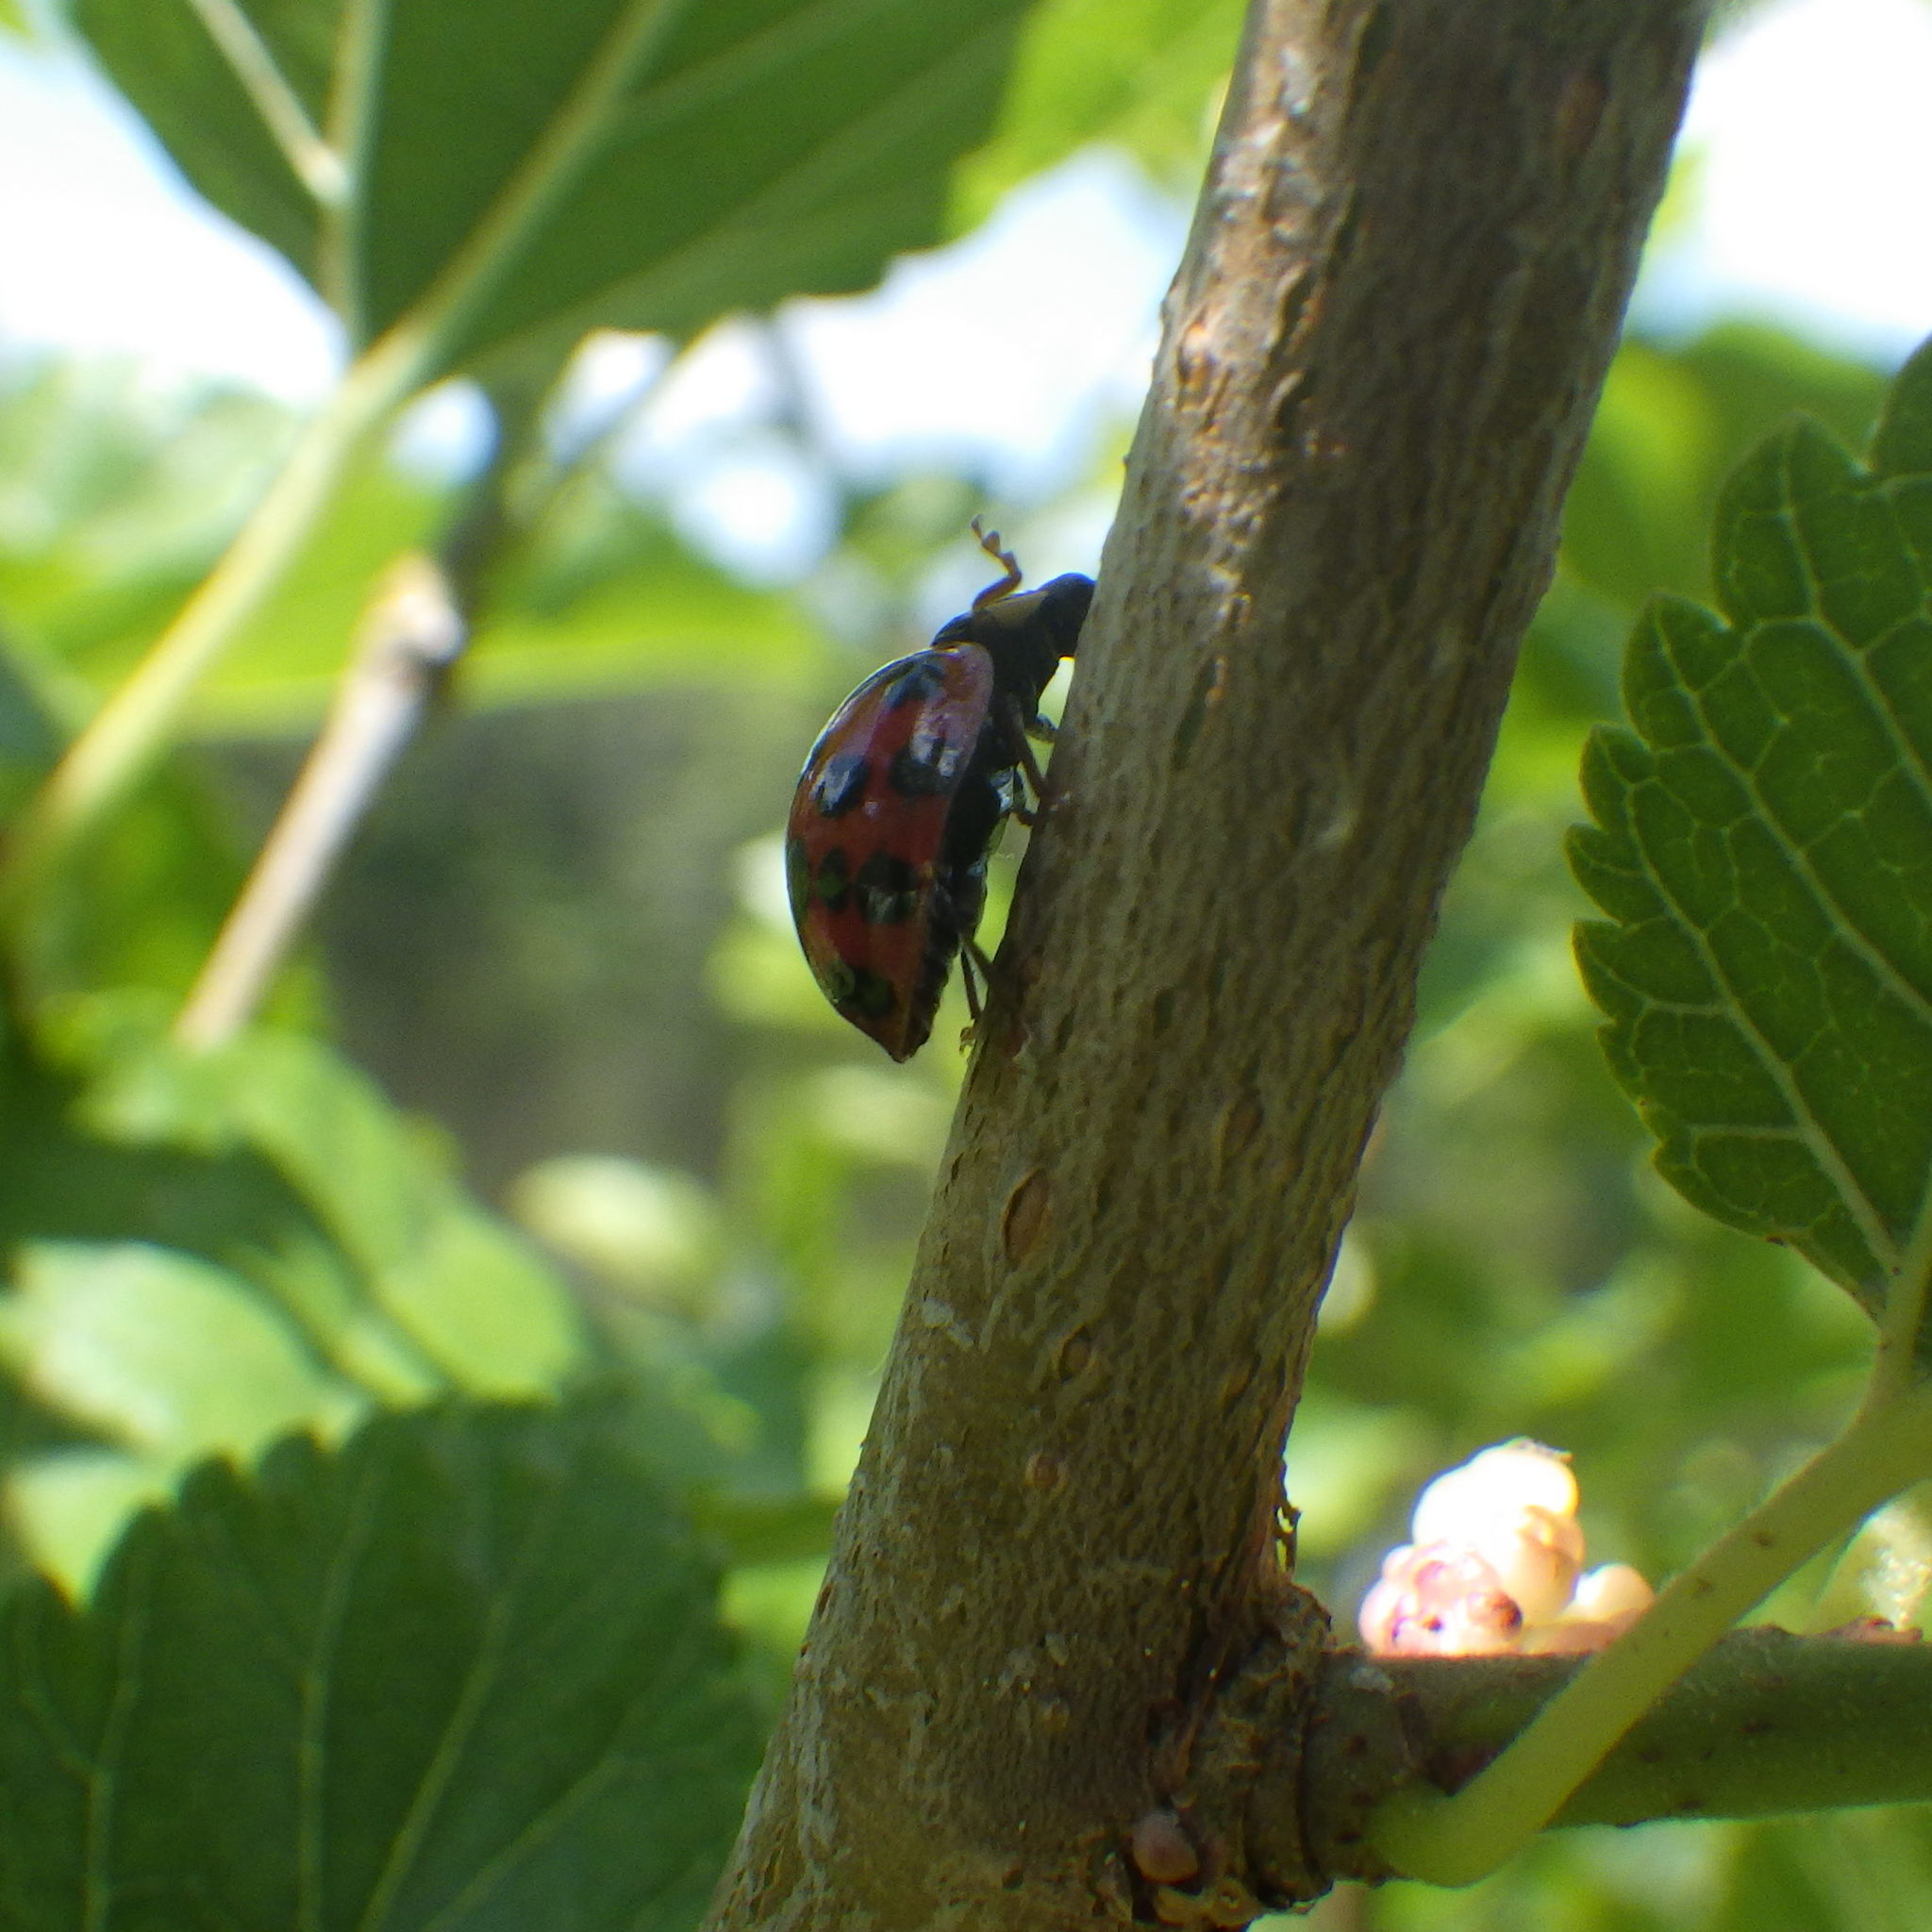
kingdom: Animalia
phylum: Arthropoda
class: Insecta
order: Coleoptera
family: Coccinellidae
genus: Harmonia
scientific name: Harmonia axyridis
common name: Harlequin ladybird
